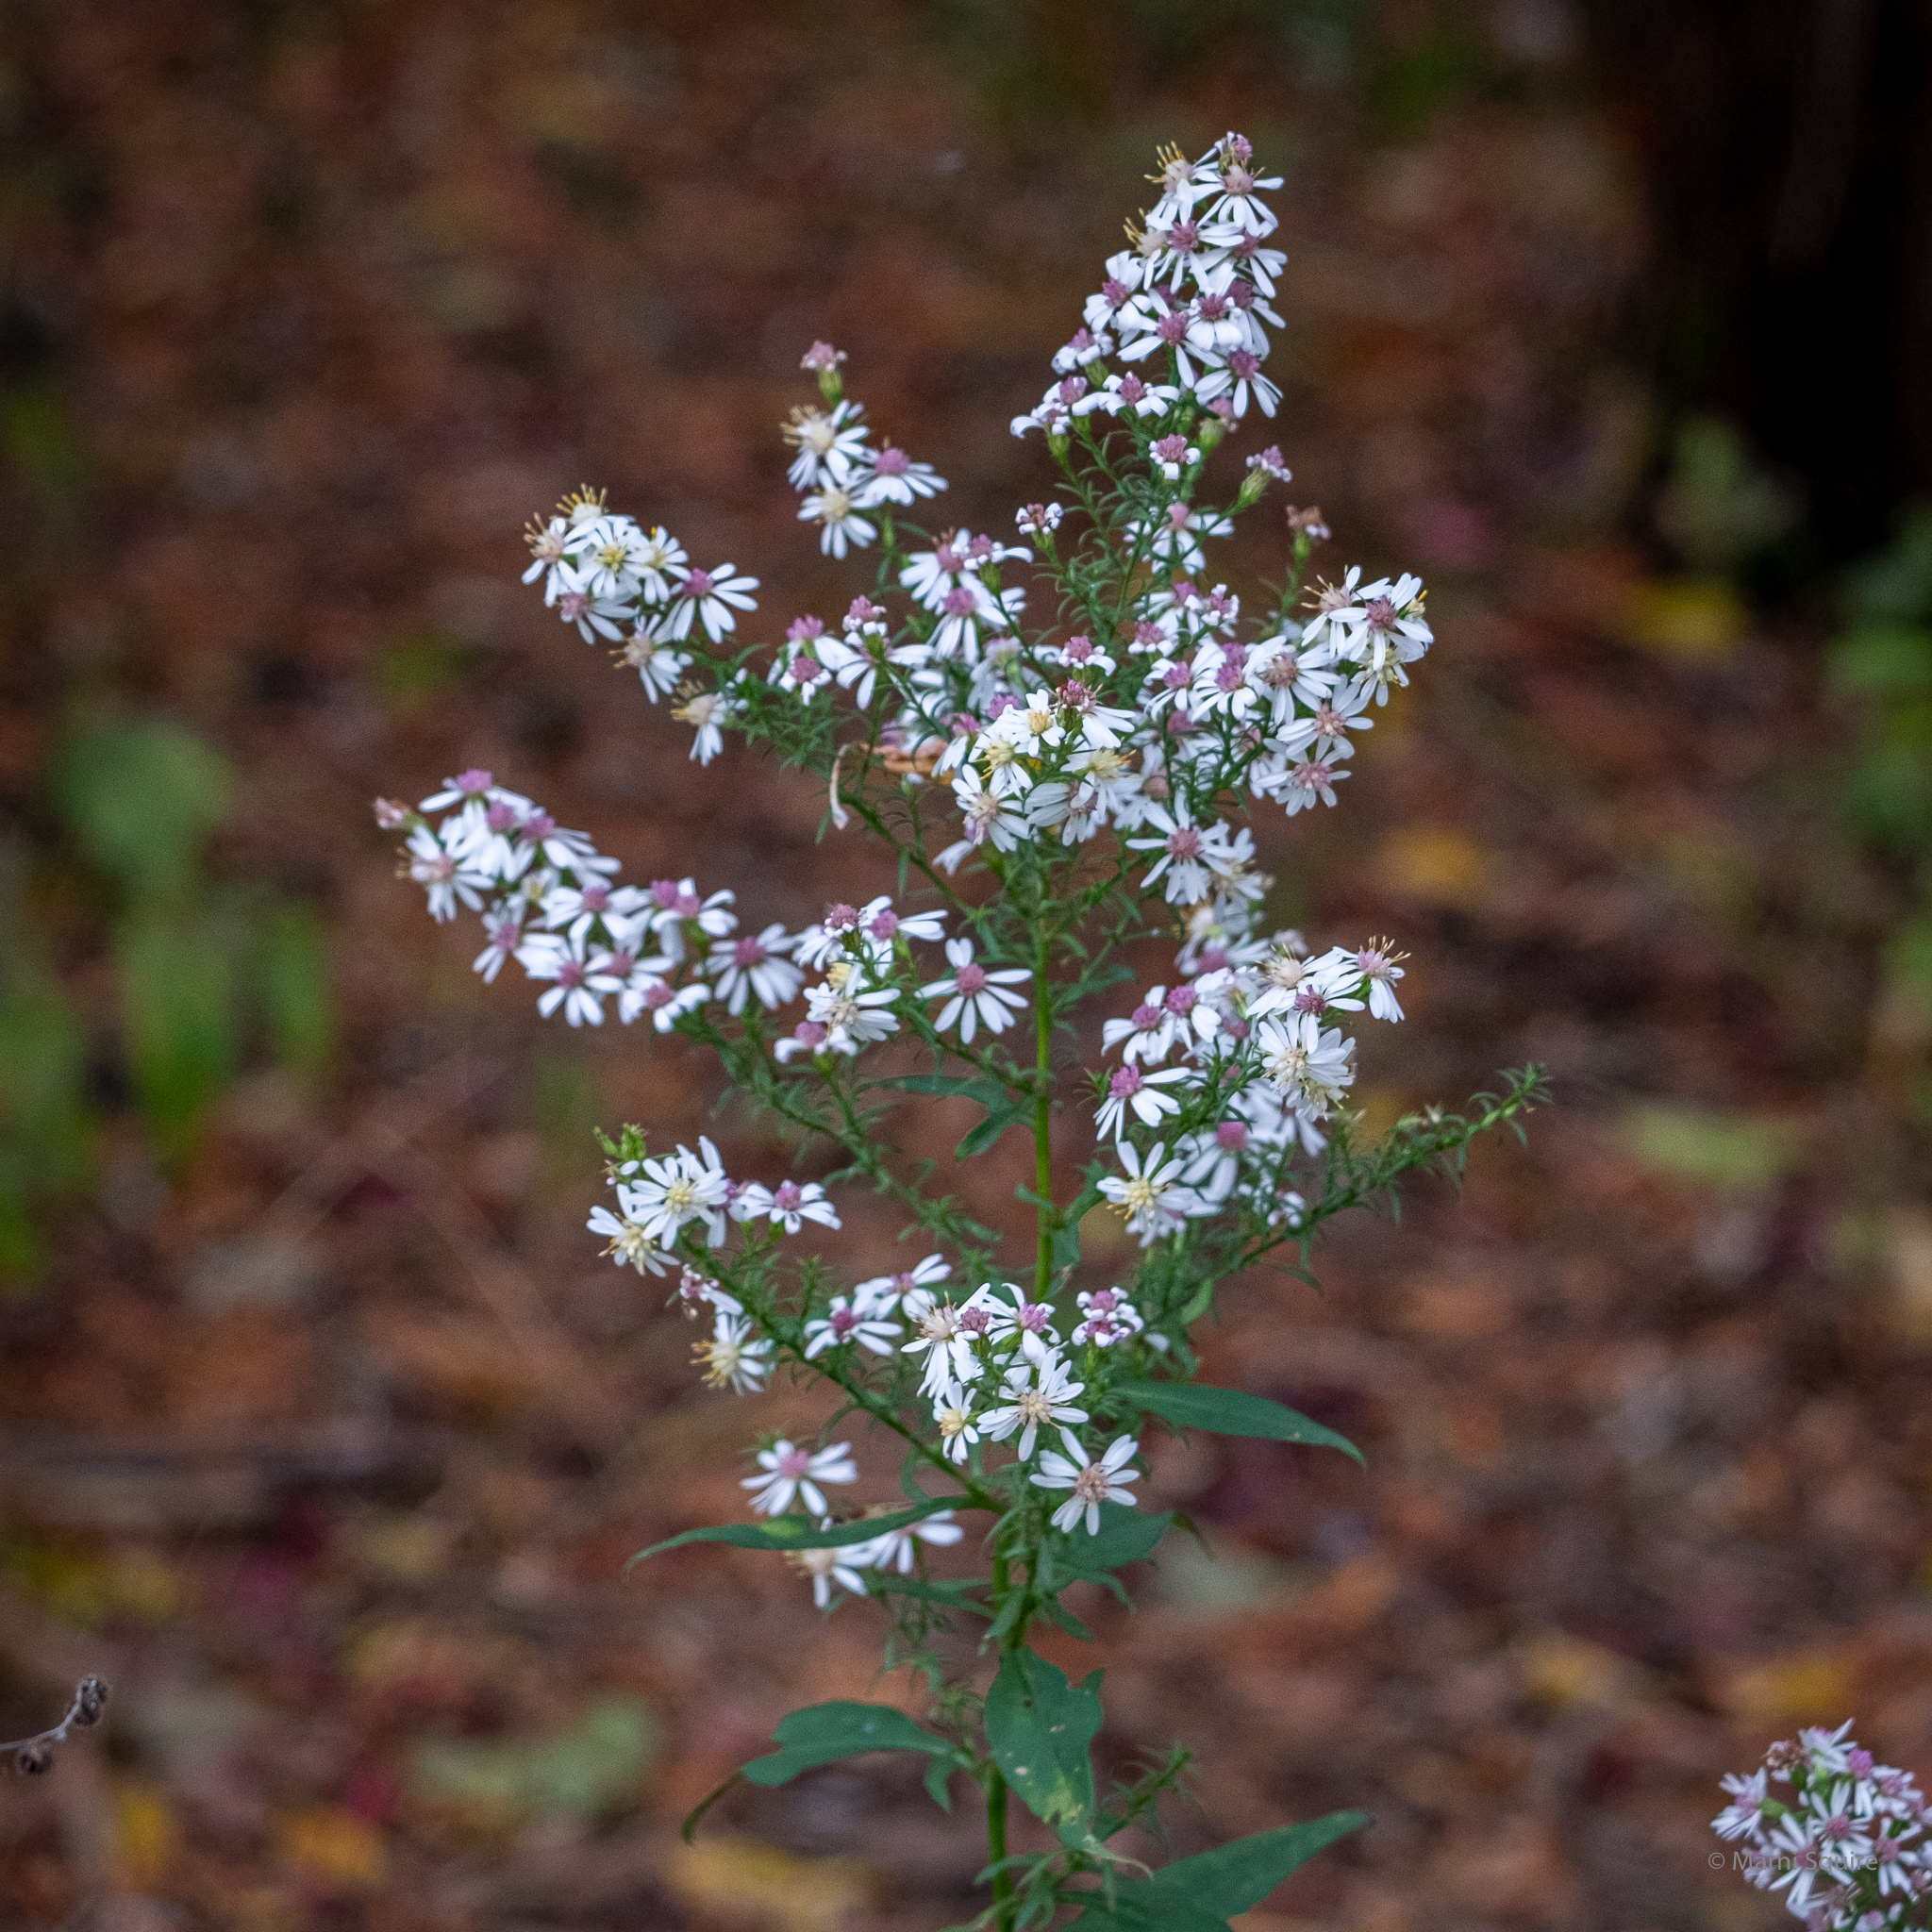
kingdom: Plantae
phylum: Tracheophyta
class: Magnoliopsida
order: Asterales
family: Asteraceae
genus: Symphyotrichum
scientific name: Symphyotrichum urophyllum
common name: Arrow-leaved aster
